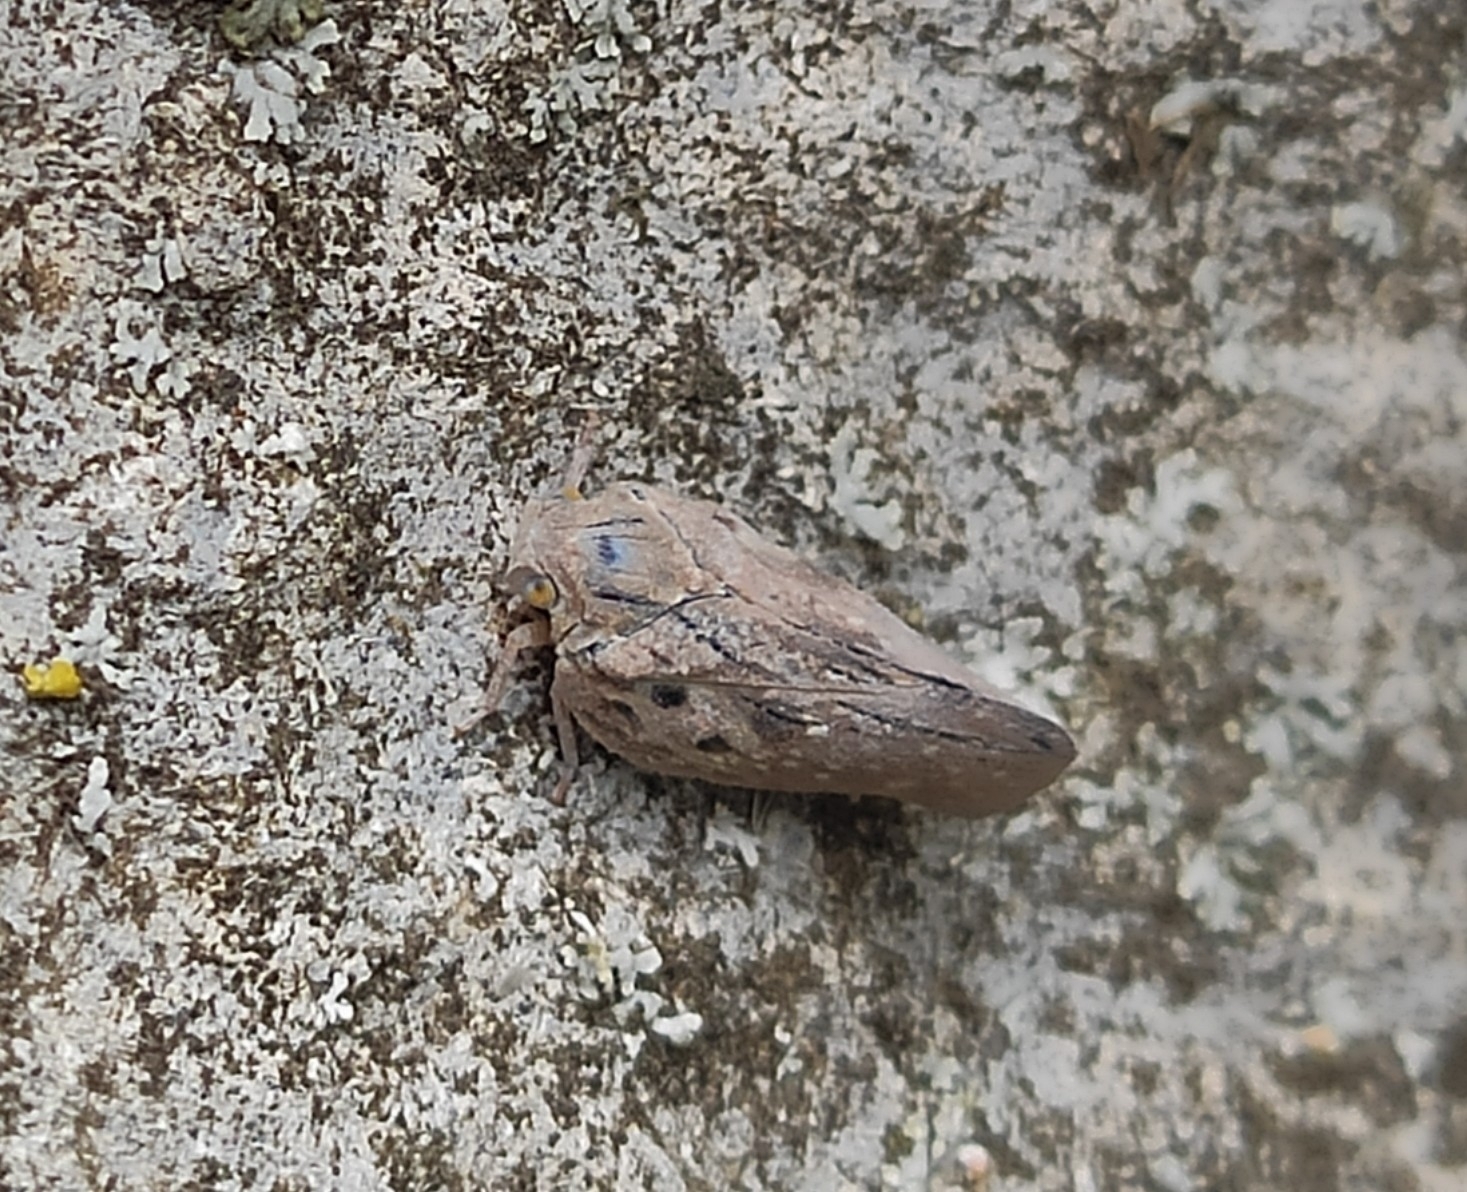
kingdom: Animalia
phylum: Arthropoda
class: Insecta
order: Hemiptera
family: Flatidae
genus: Metcalfa
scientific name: Metcalfa pruinosa
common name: Citrus flatid planthopper
